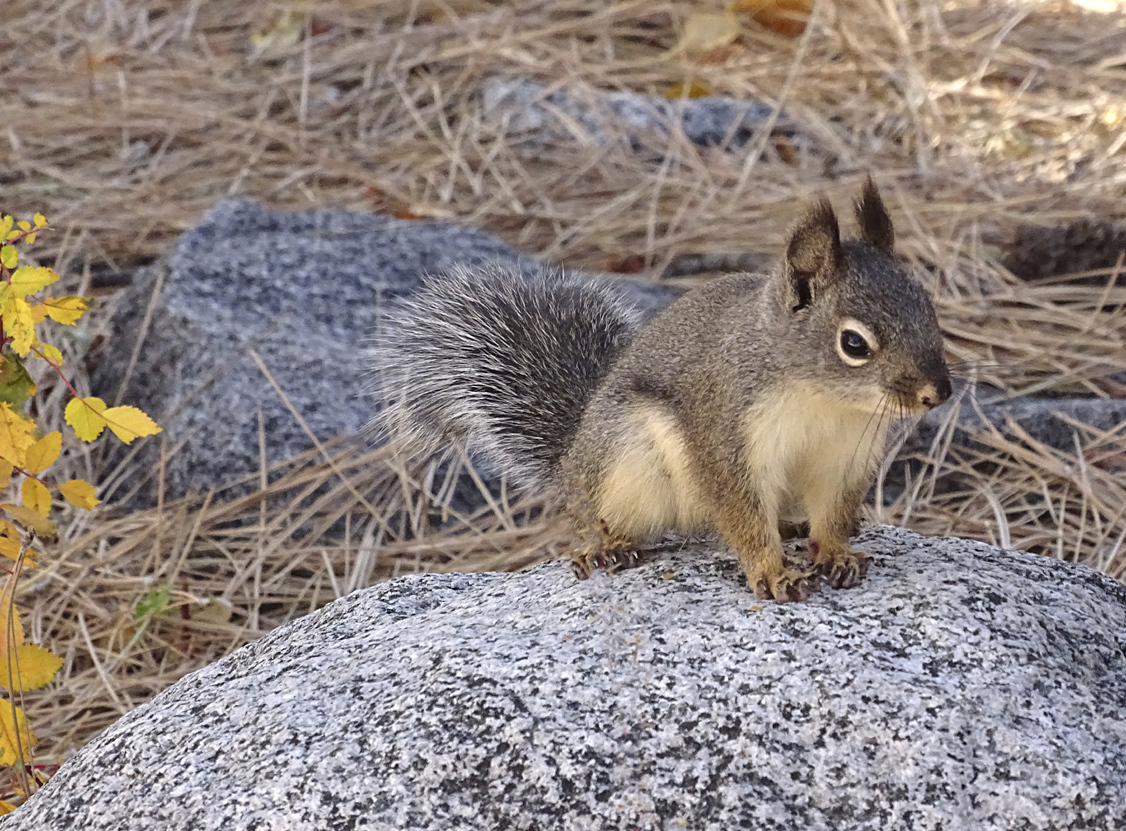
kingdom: Animalia
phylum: Chordata
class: Mammalia
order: Rodentia
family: Sciuridae
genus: Tamiasciurus
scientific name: Tamiasciurus douglasii
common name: Douglas's squirrel
